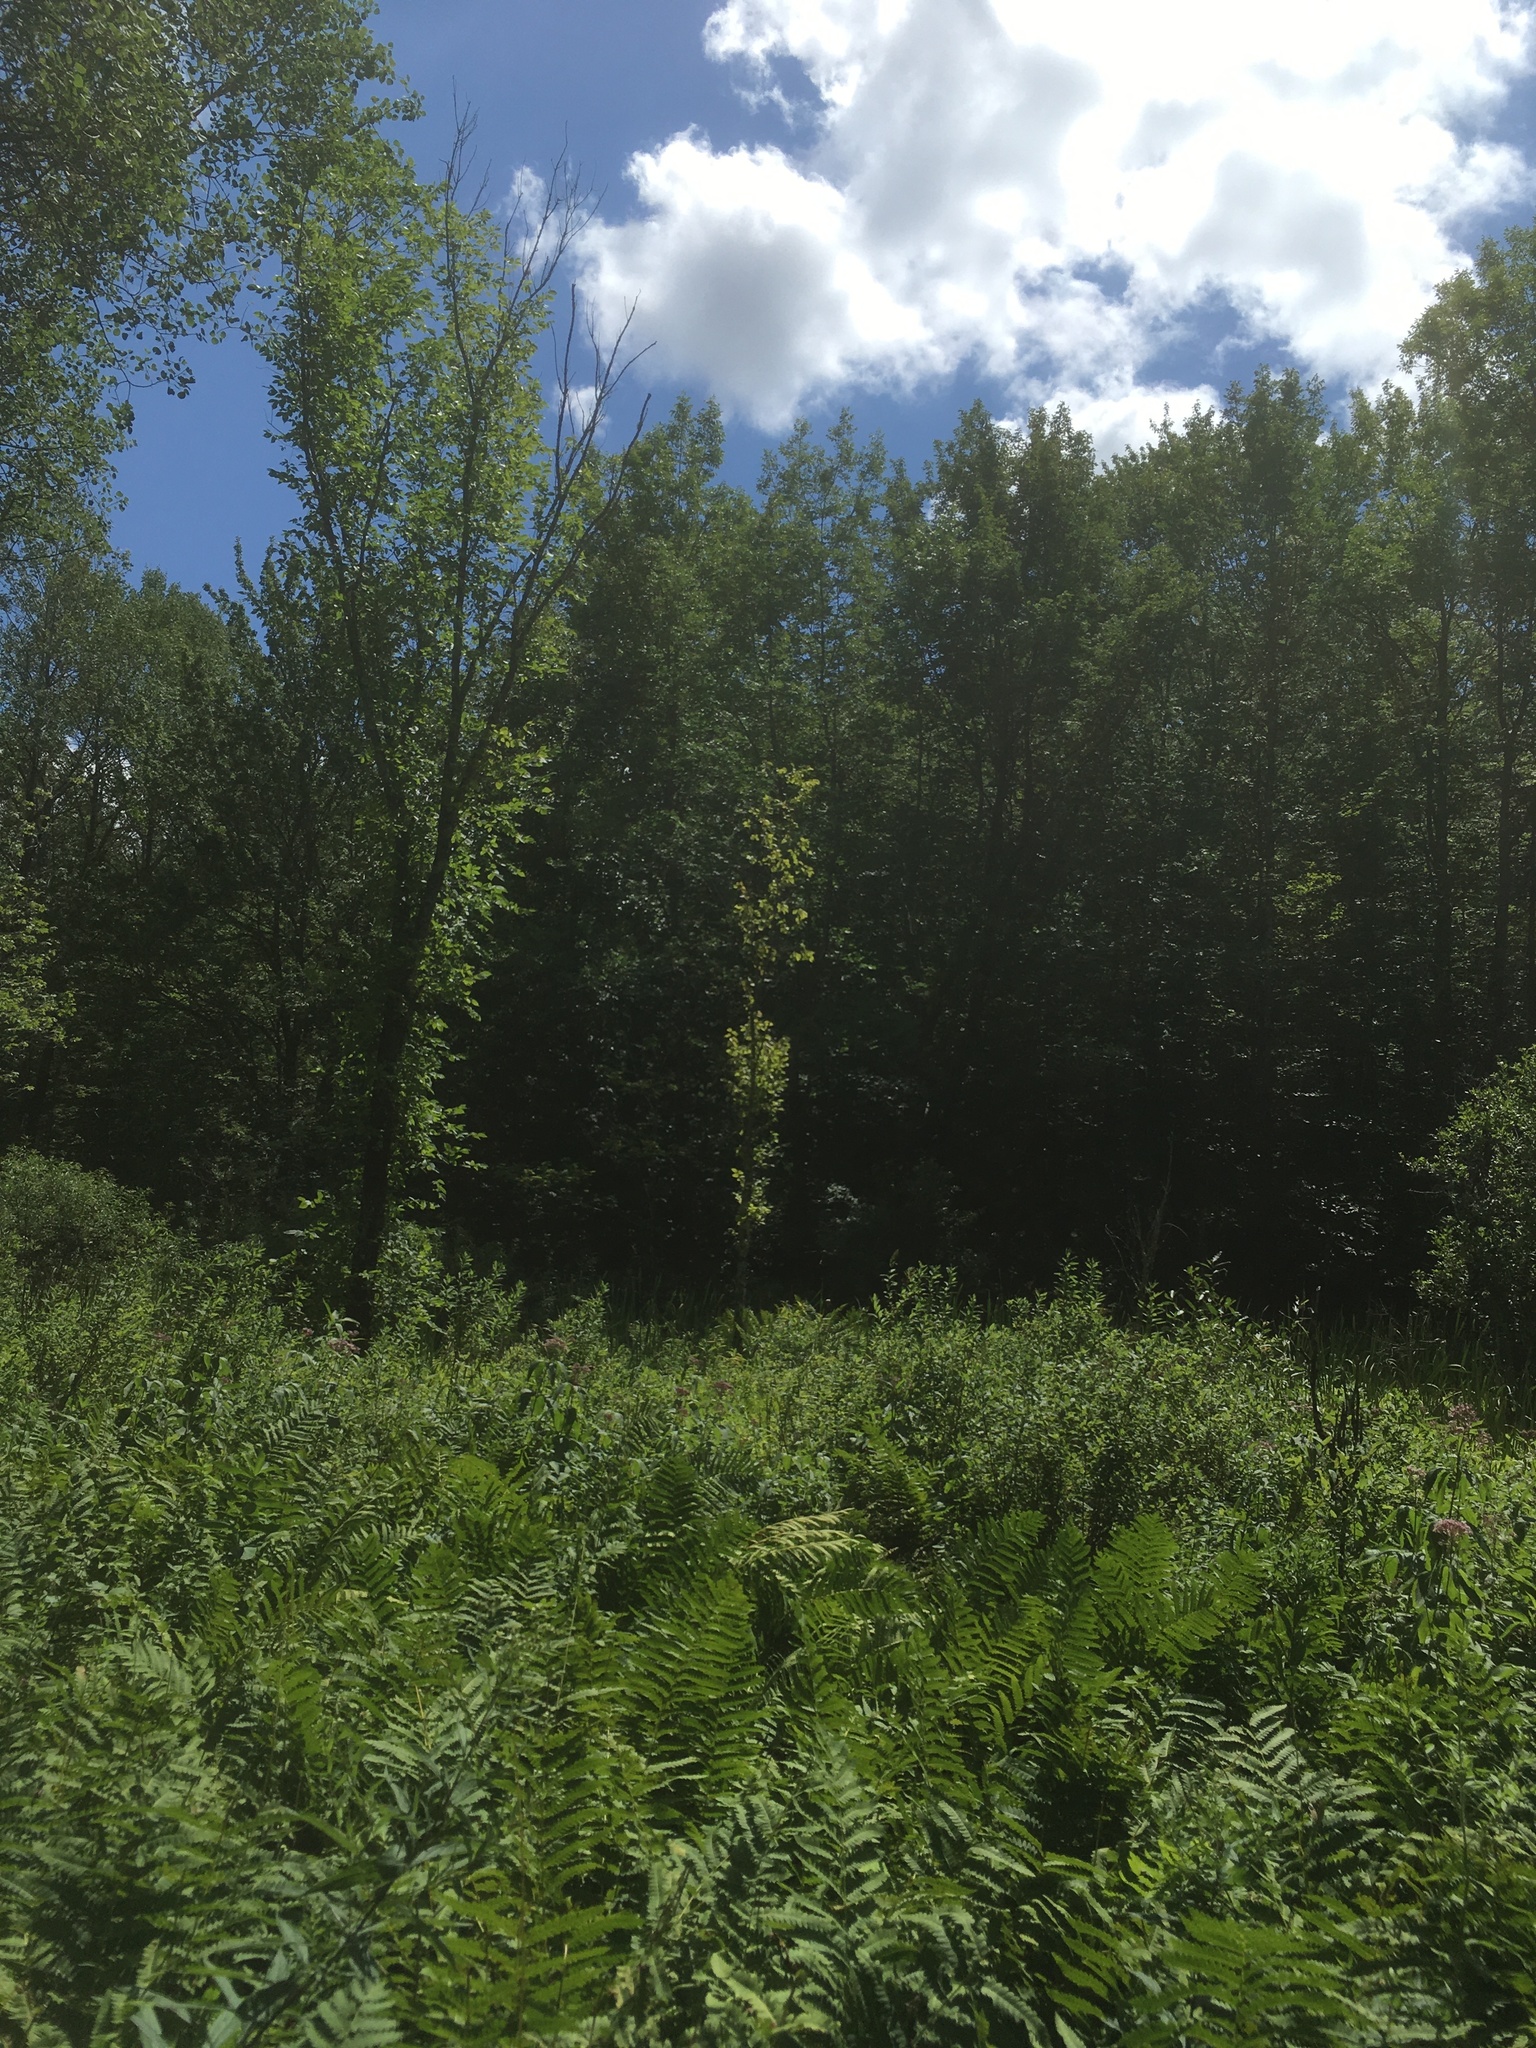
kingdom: Plantae
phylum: Tracheophyta
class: Magnoliopsida
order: Rosales
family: Ulmaceae
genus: Ulmus
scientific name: Ulmus americana
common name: American elm
